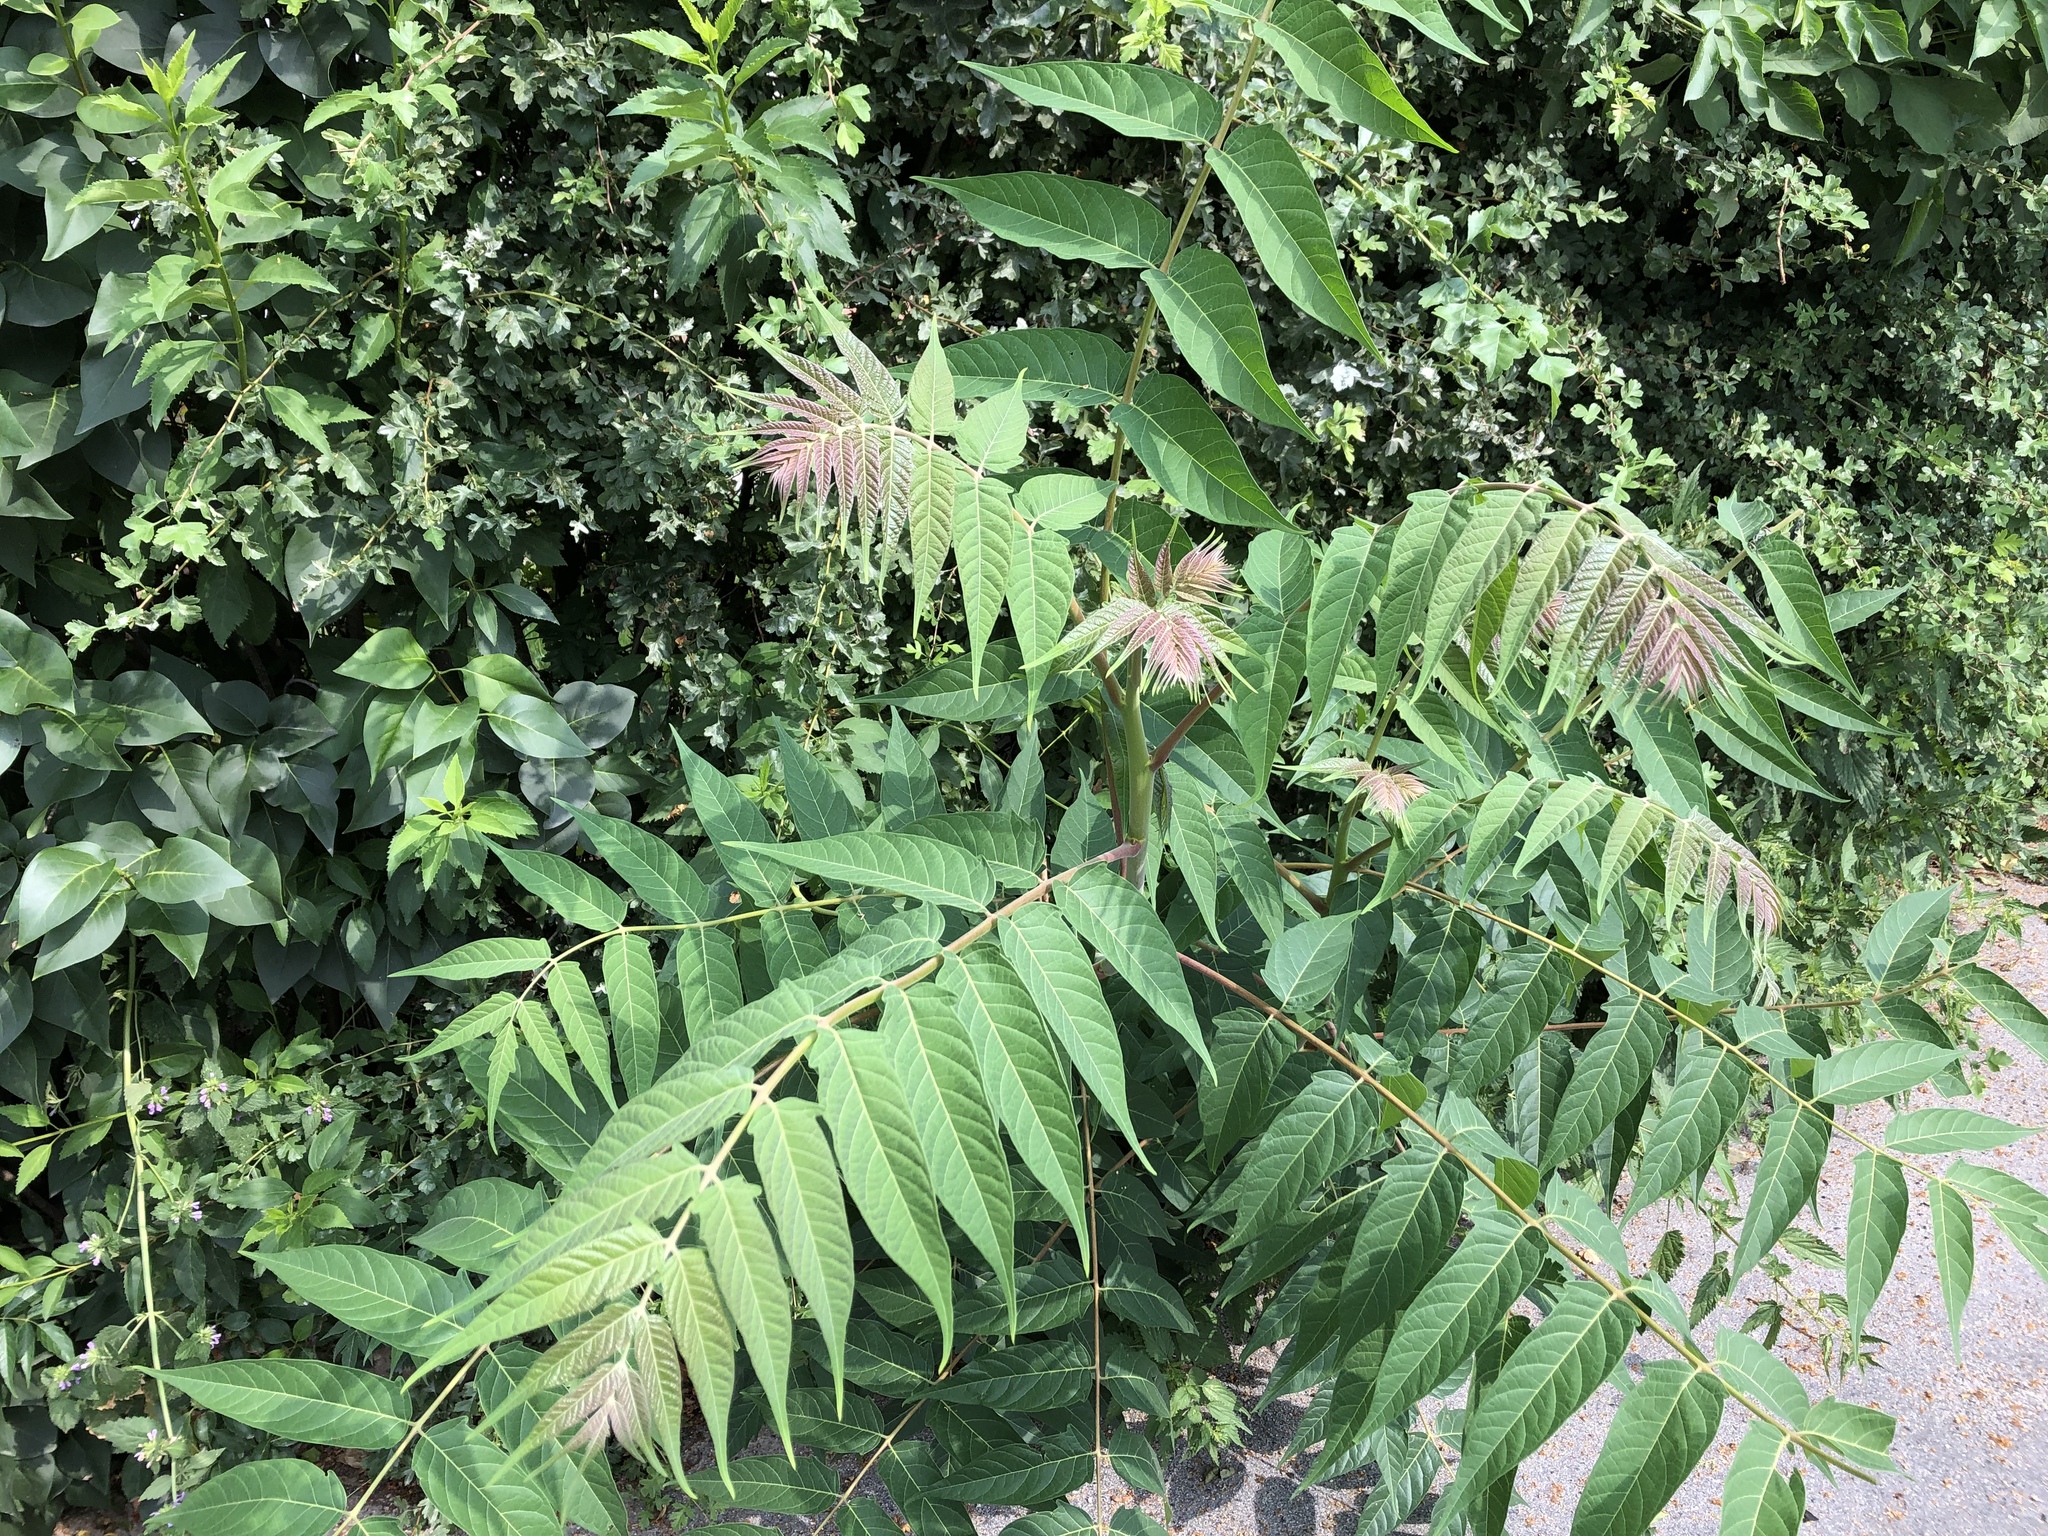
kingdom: Plantae
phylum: Tracheophyta
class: Magnoliopsida
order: Sapindales
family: Simaroubaceae
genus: Ailanthus
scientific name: Ailanthus altissima
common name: Tree-of-heaven
